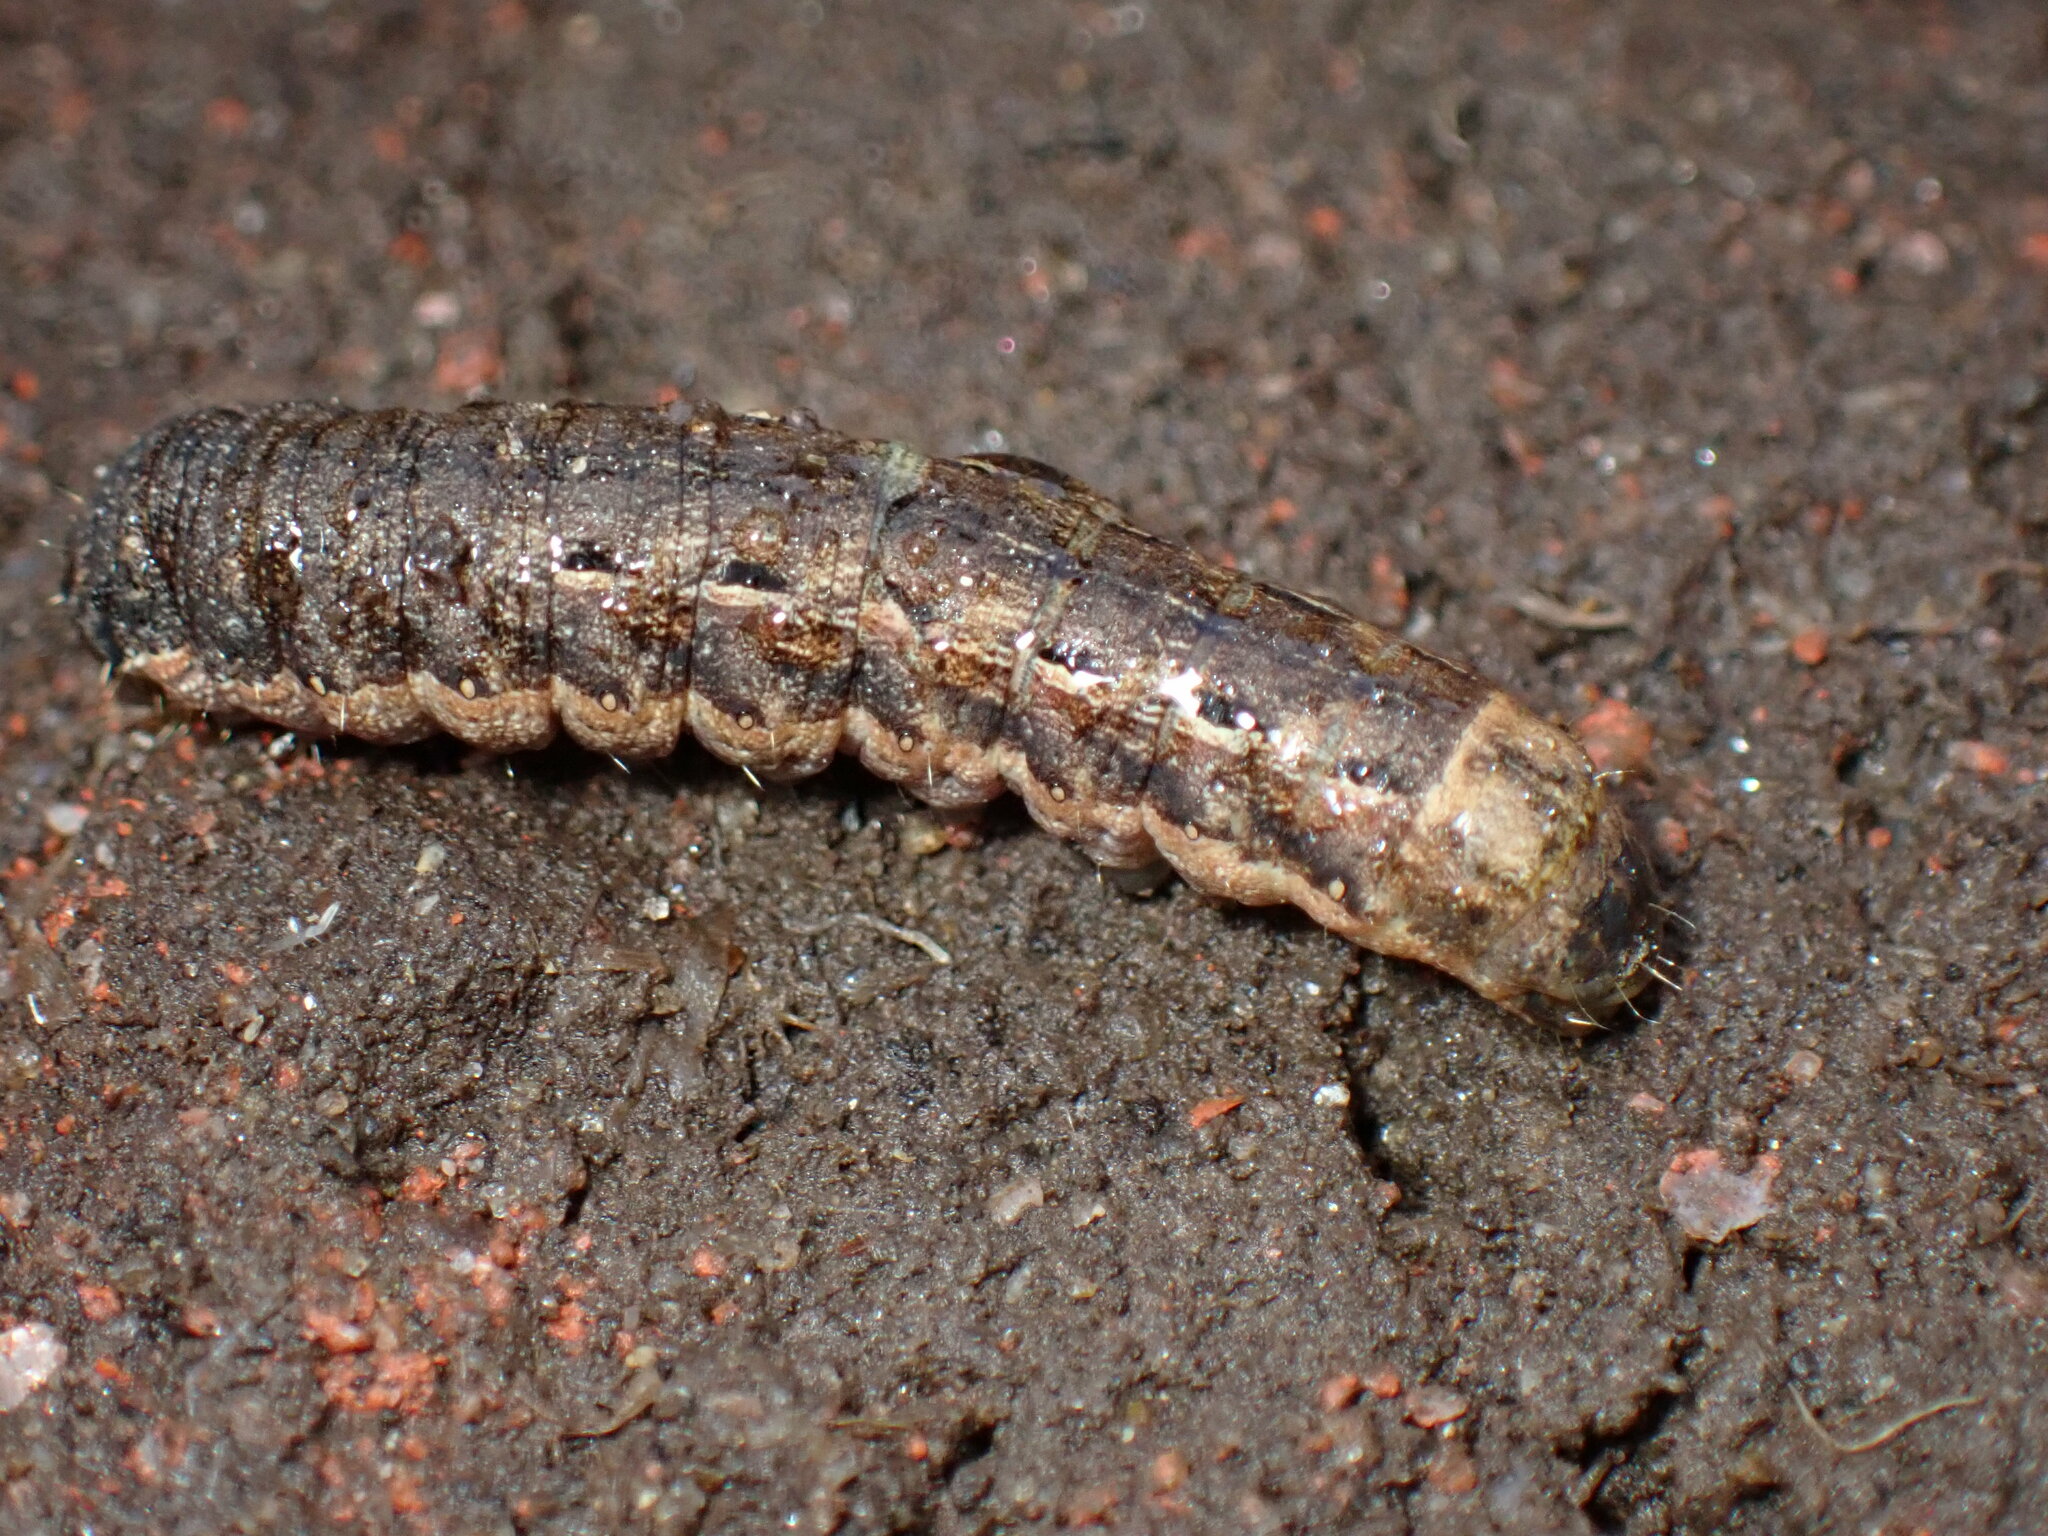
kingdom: Animalia
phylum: Arthropoda
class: Insecta
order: Lepidoptera
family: Noctuidae
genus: Noctua
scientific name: Noctua pronuba
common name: Large yellow underwing
